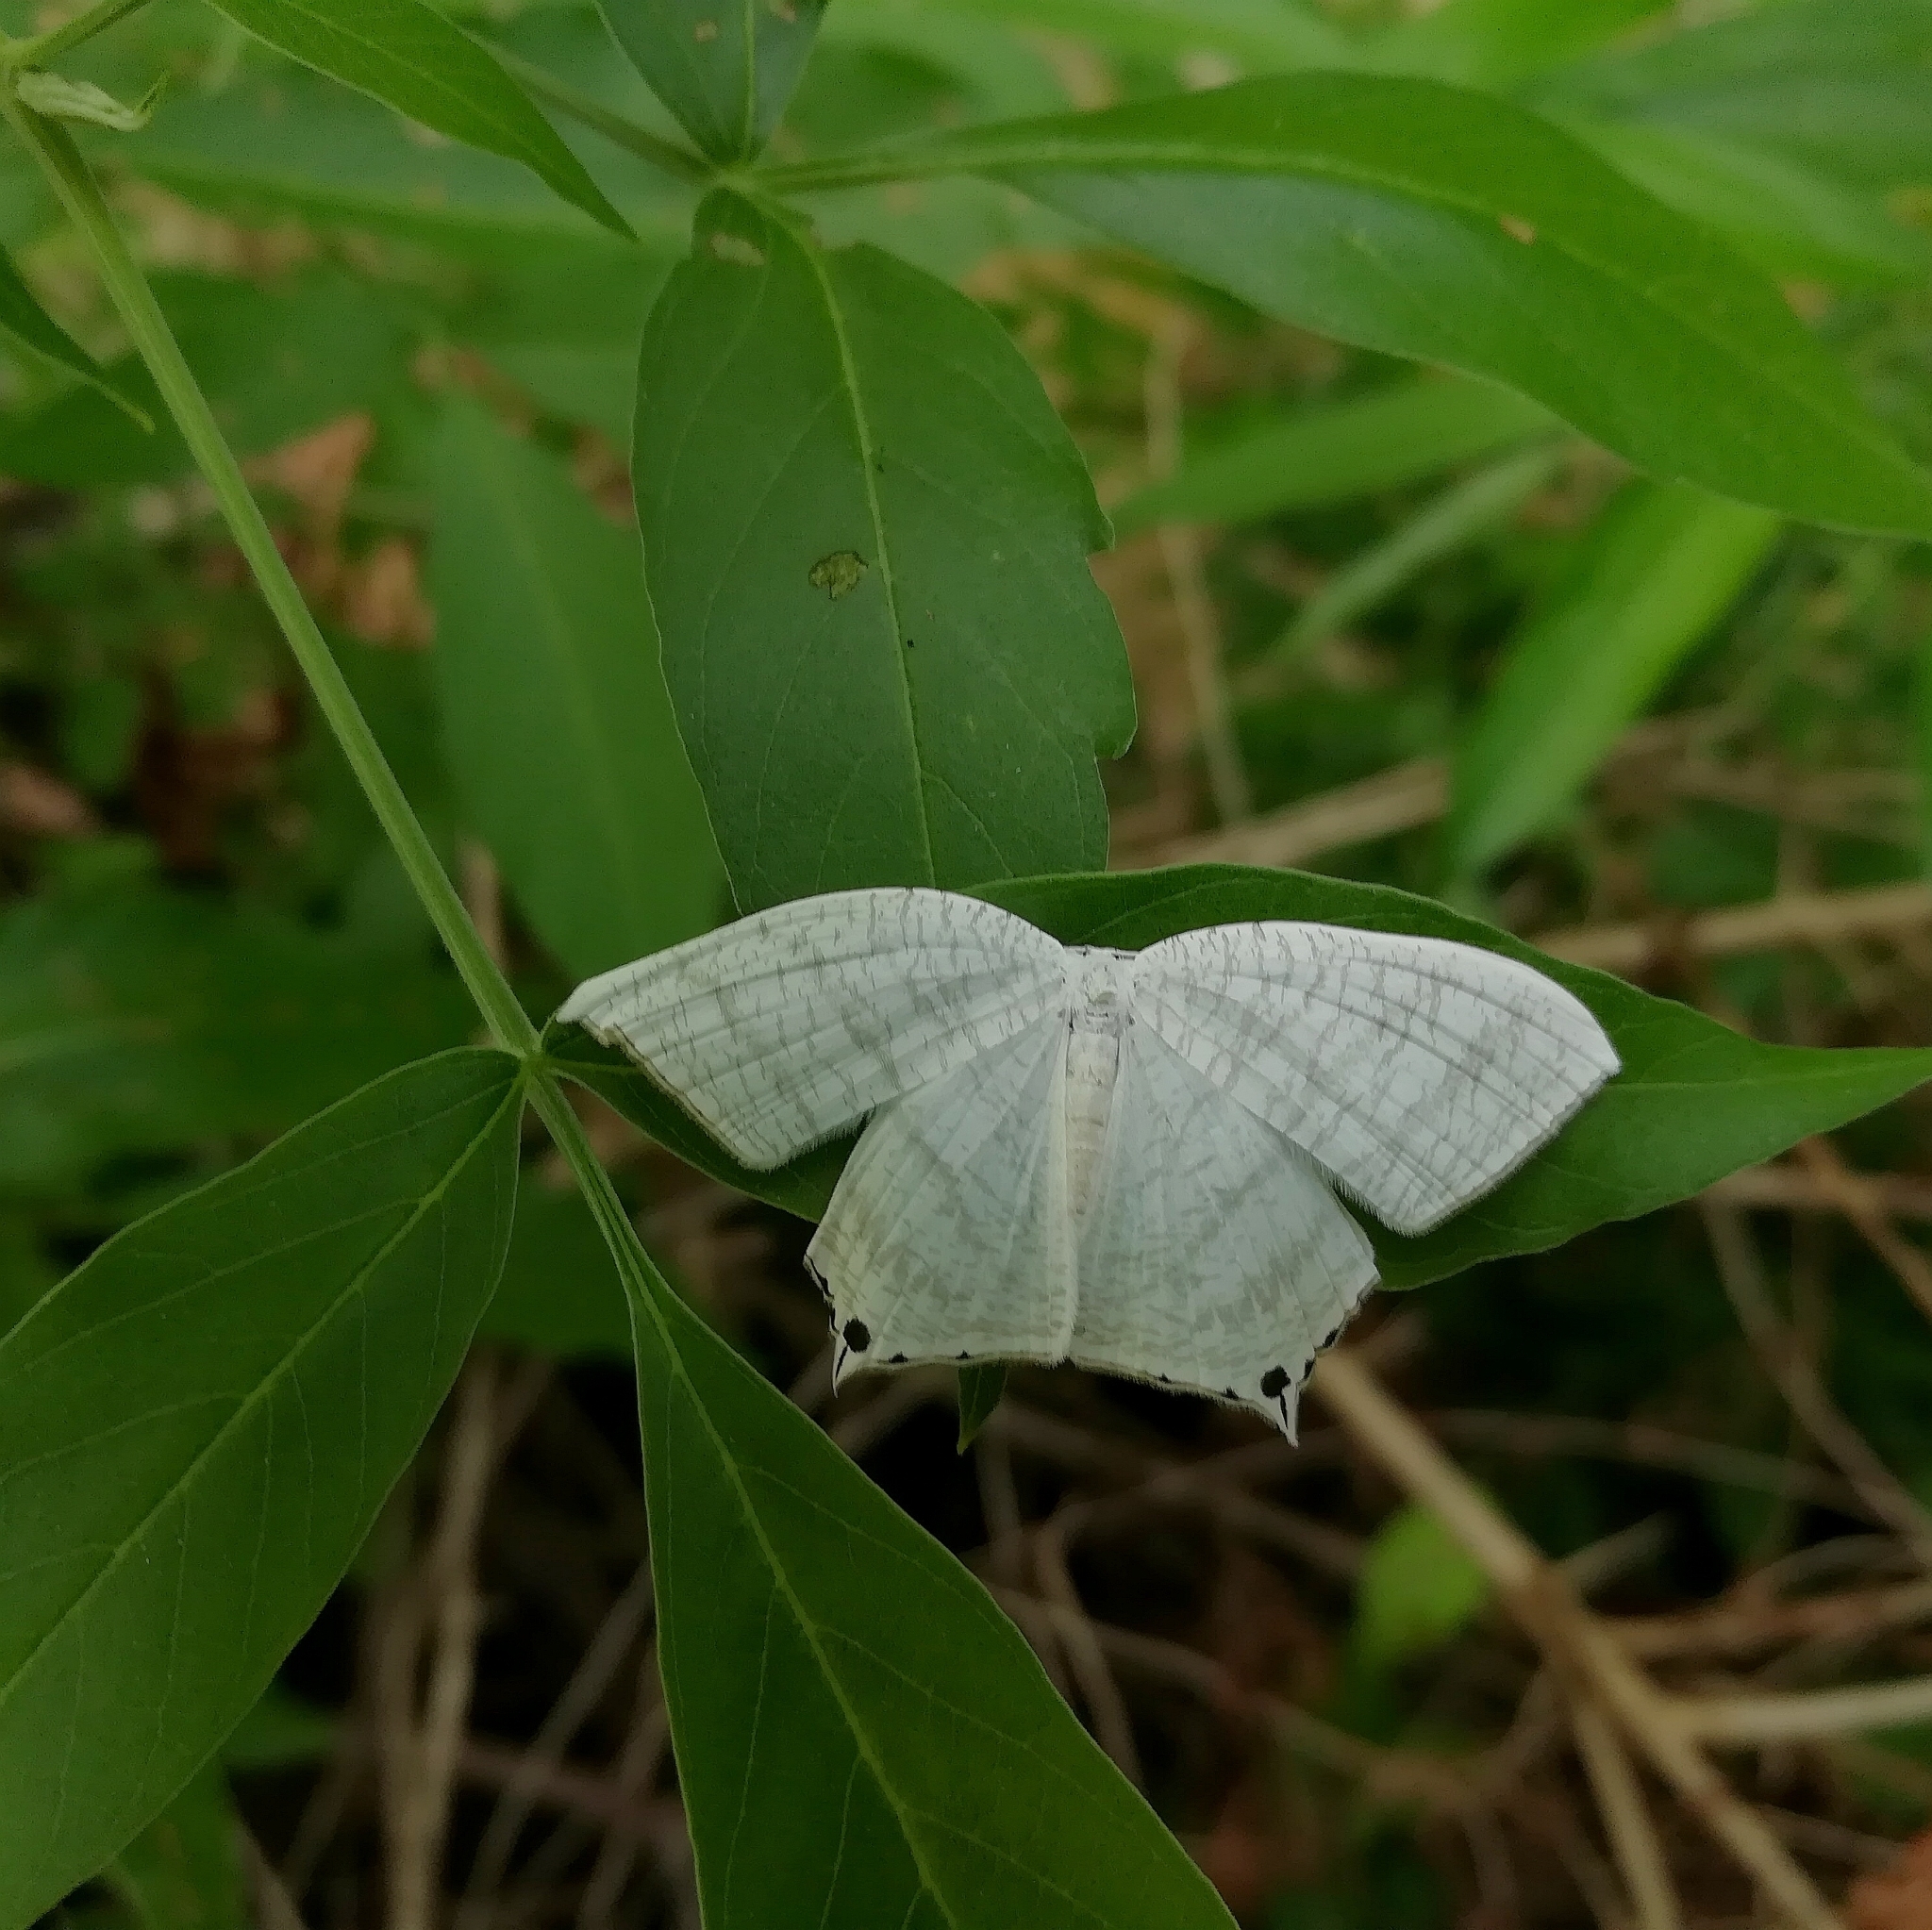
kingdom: Animalia
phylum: Arthropoda
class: Insecta
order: Lepidoptera
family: Uraniidae
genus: Micronia
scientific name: Micronia aculeata
